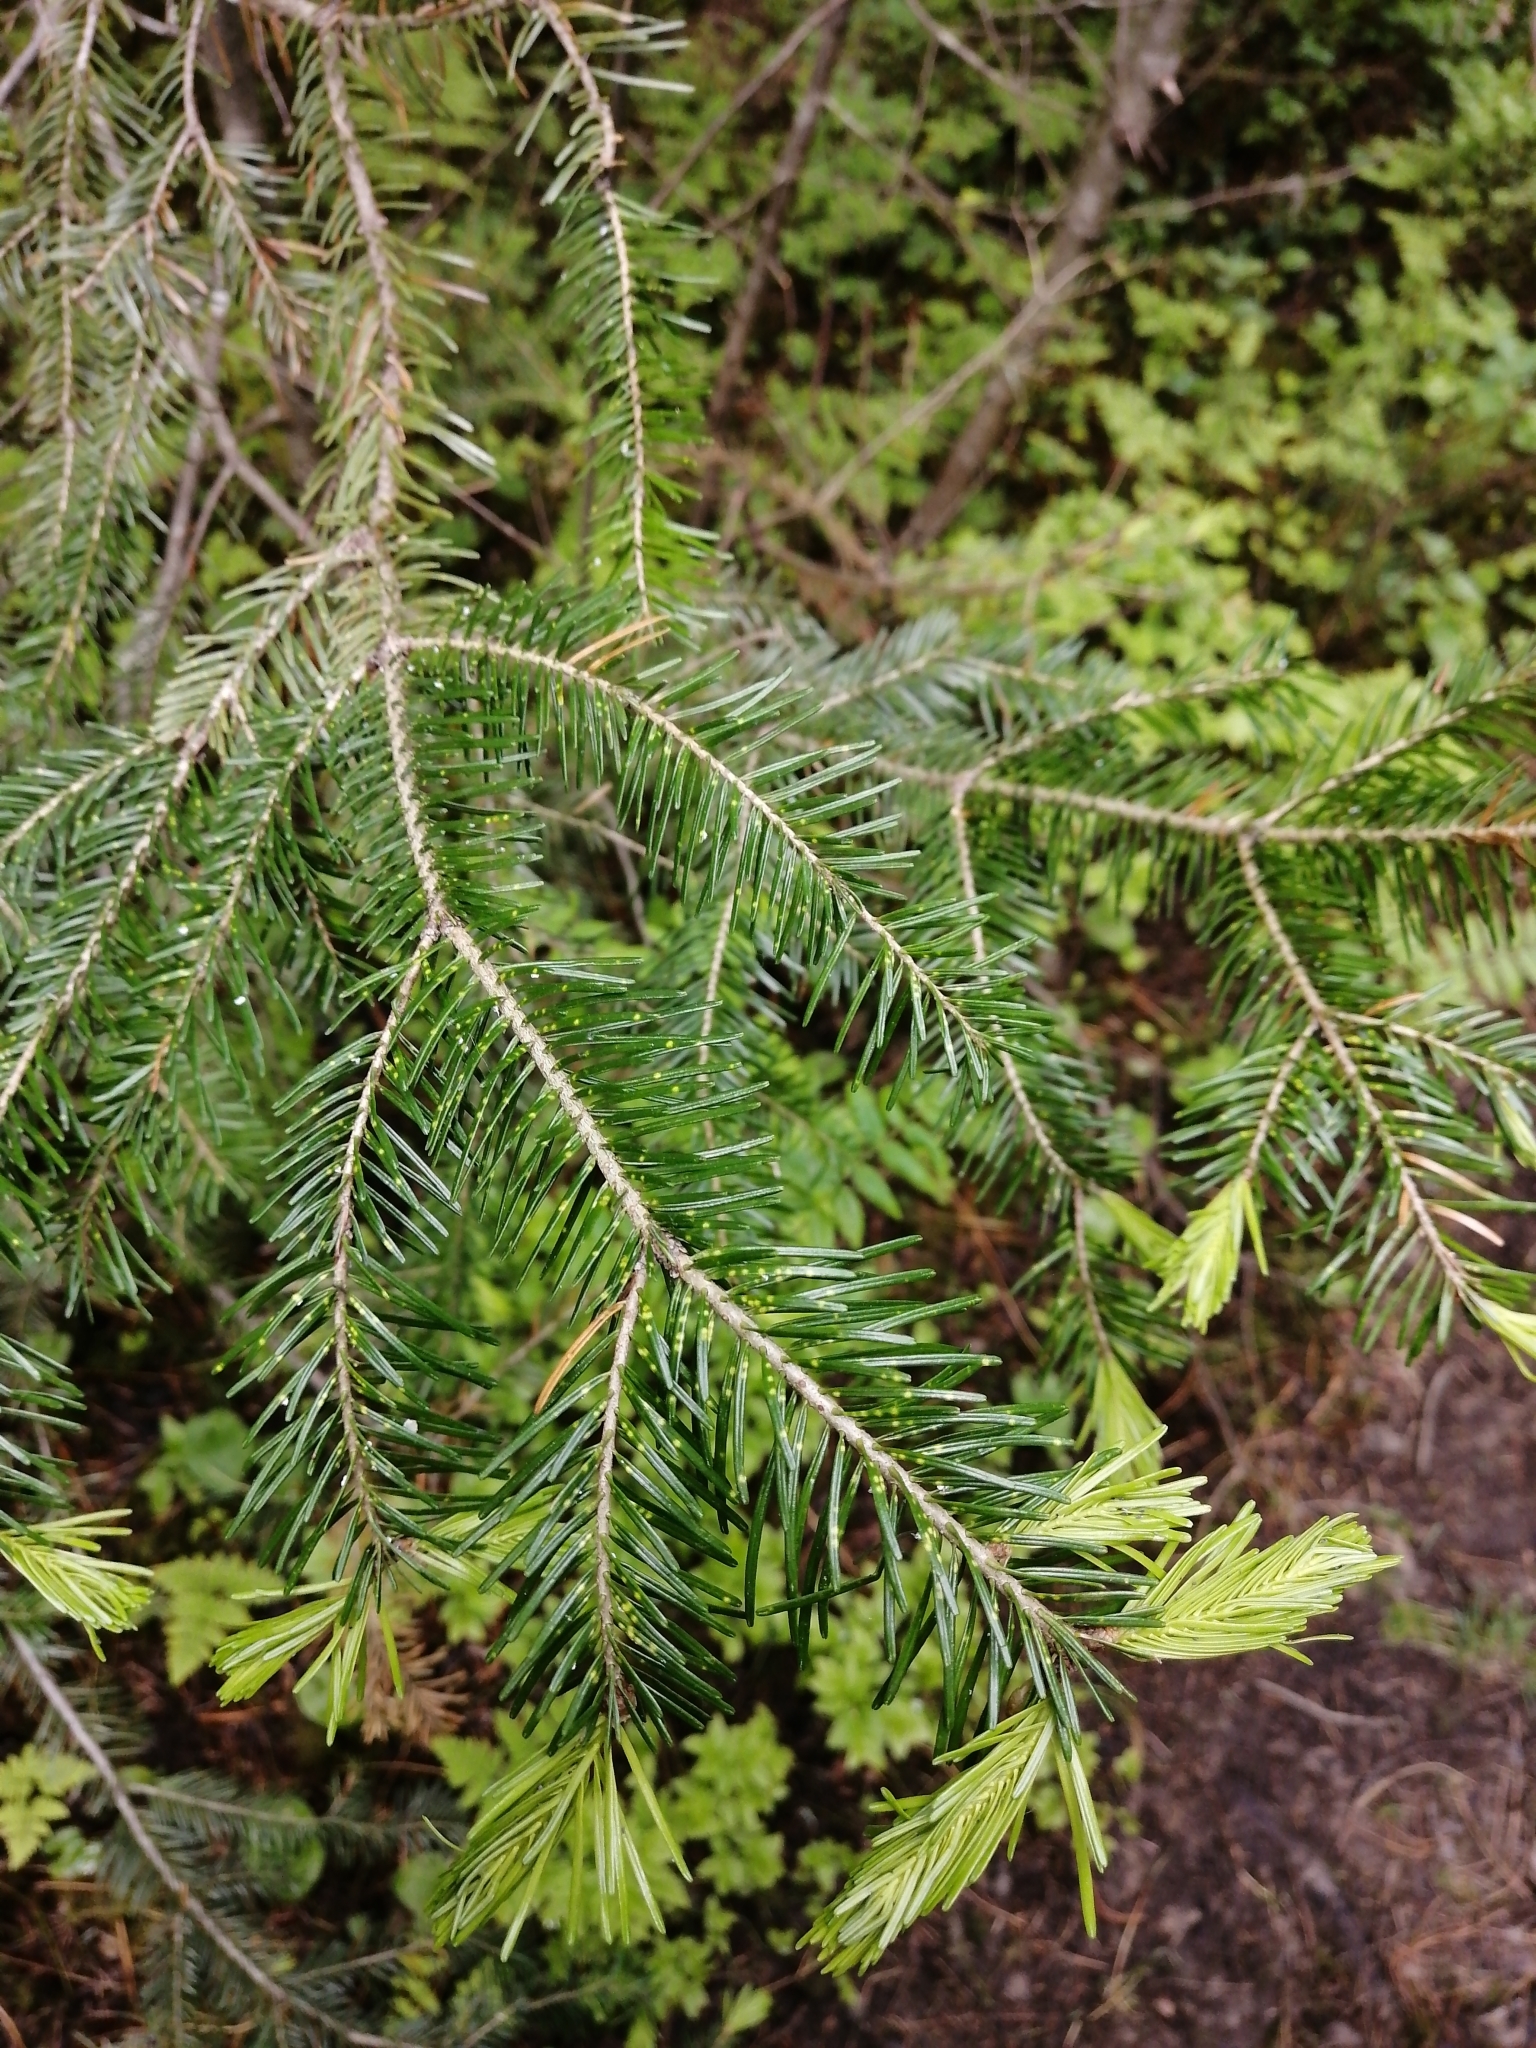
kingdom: Plantae
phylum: Tracheophyta
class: Pinopsida
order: Pinales
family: Pinaceae
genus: Abies
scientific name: Abies sibirica
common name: Siberian fir
